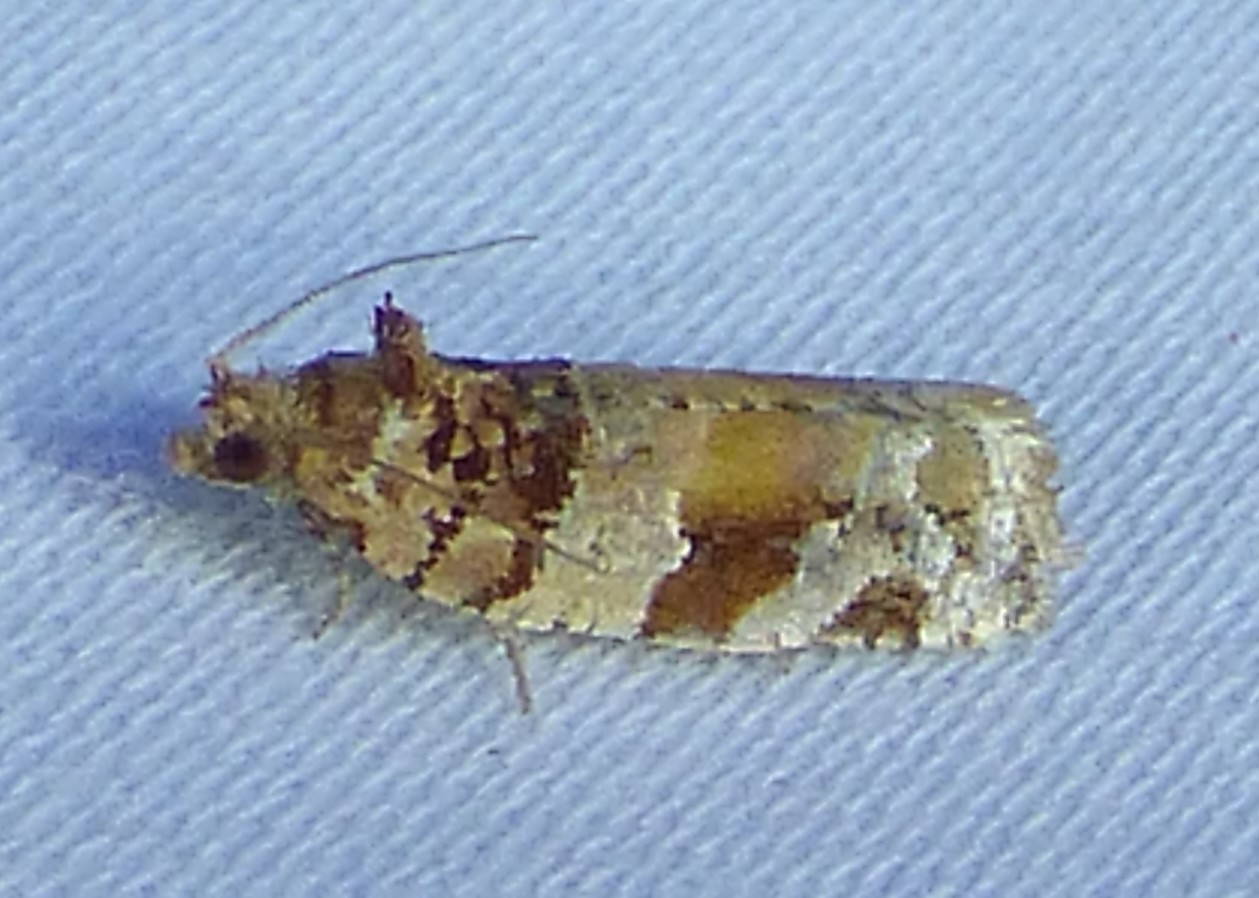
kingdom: Animalia
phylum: Arthropoda
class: Insecta
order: Lepidoptera
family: Tortricidae
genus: Argyrotaenia
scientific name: Argyrotaenia kimballi
